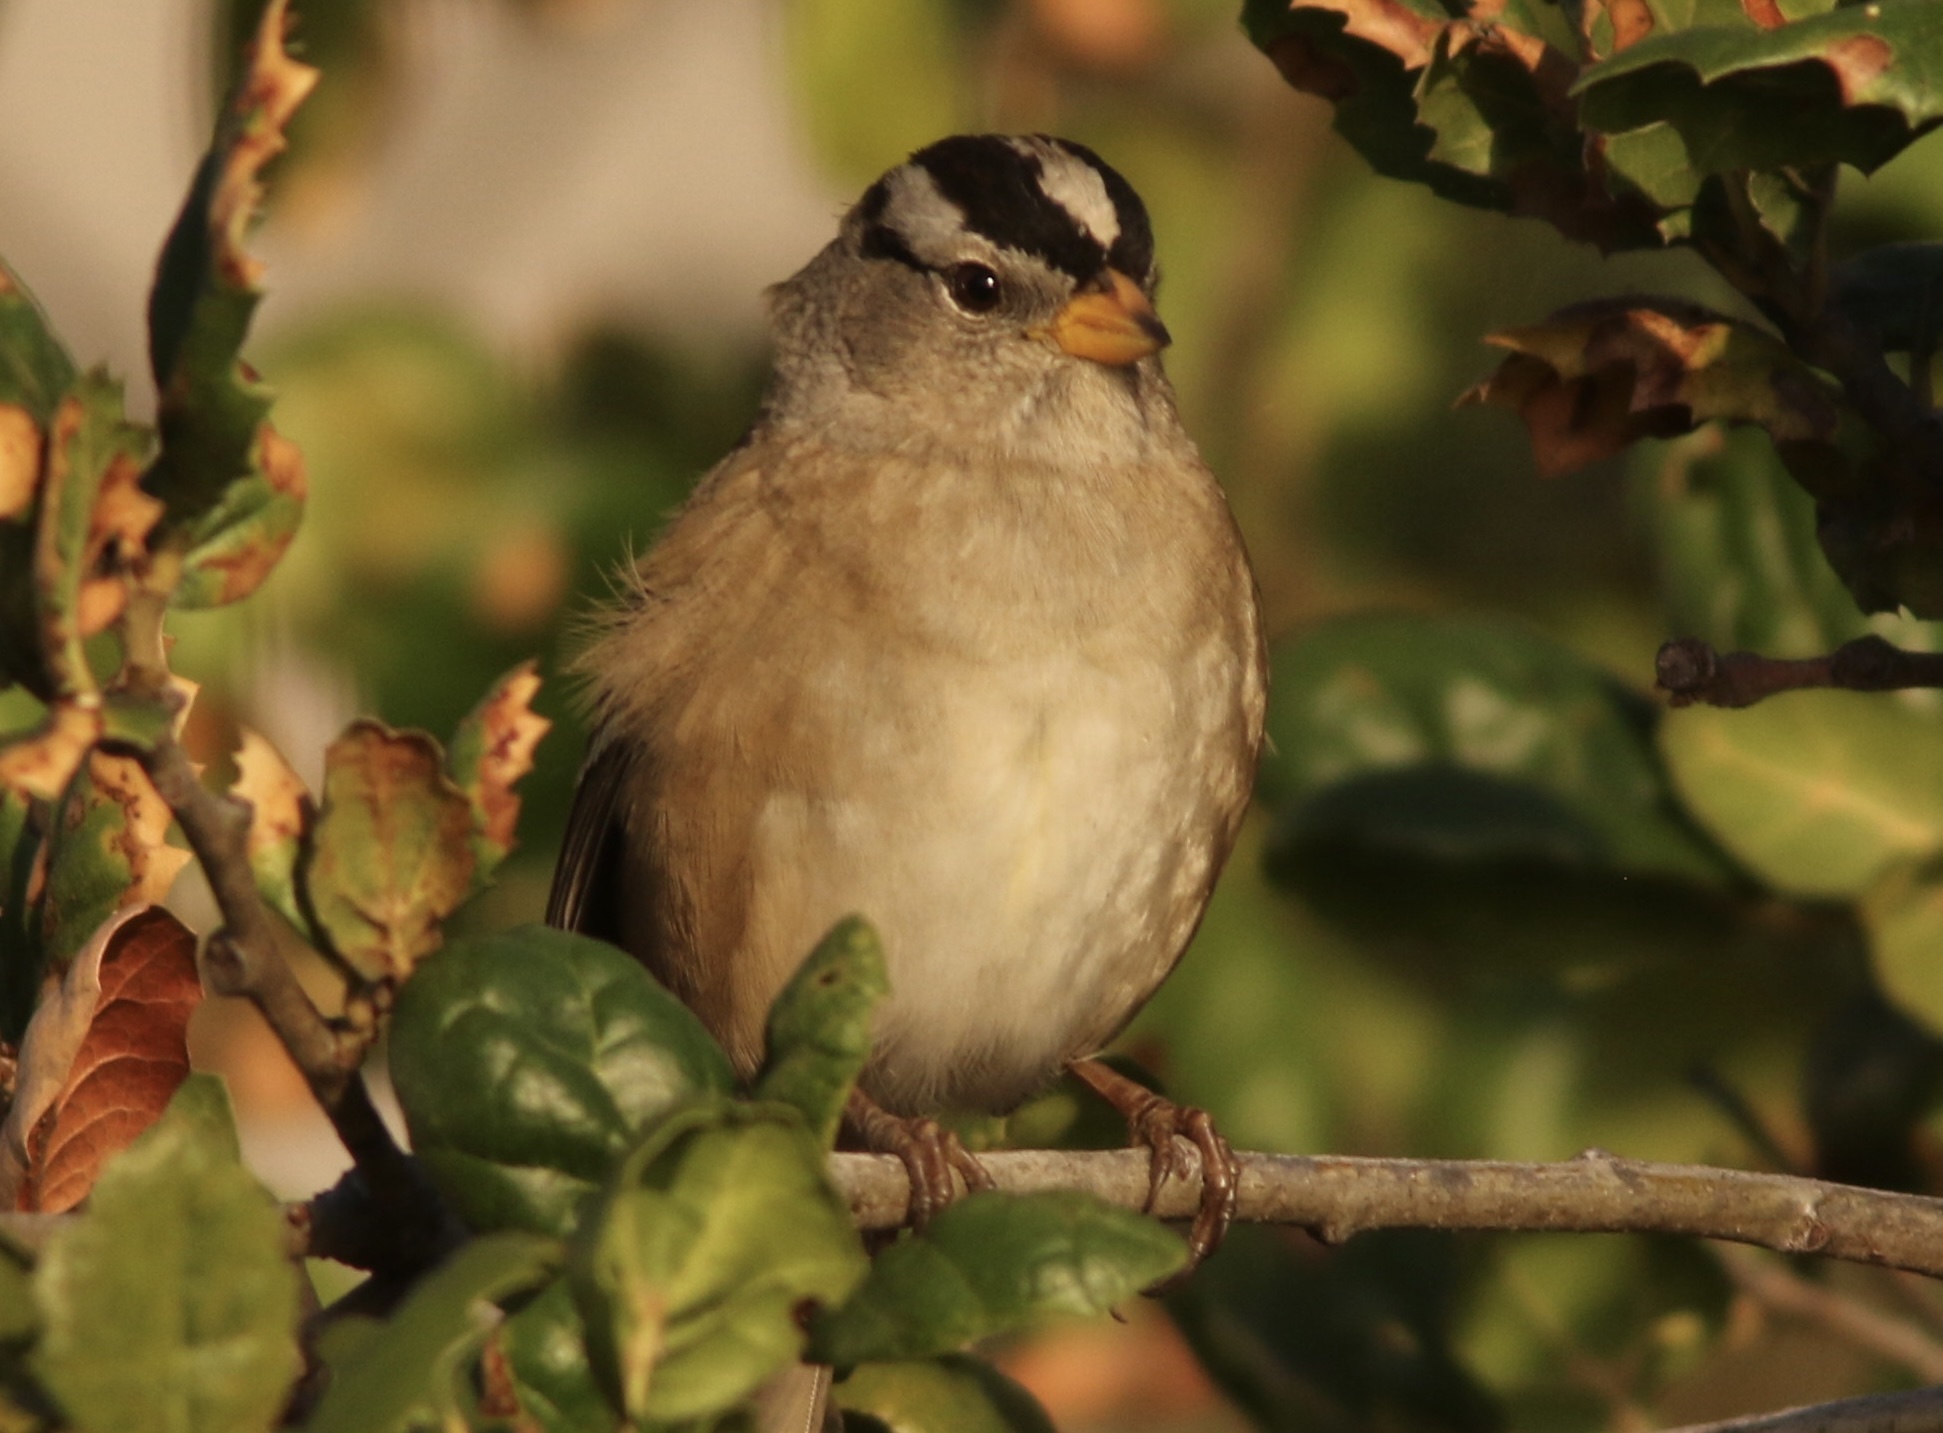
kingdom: Animalia
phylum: Chordata
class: Aves
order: Passeriformes
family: Passerellidae
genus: Zonotrichia
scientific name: Zonotrichia leucophrys
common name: White-crowned sparrow
